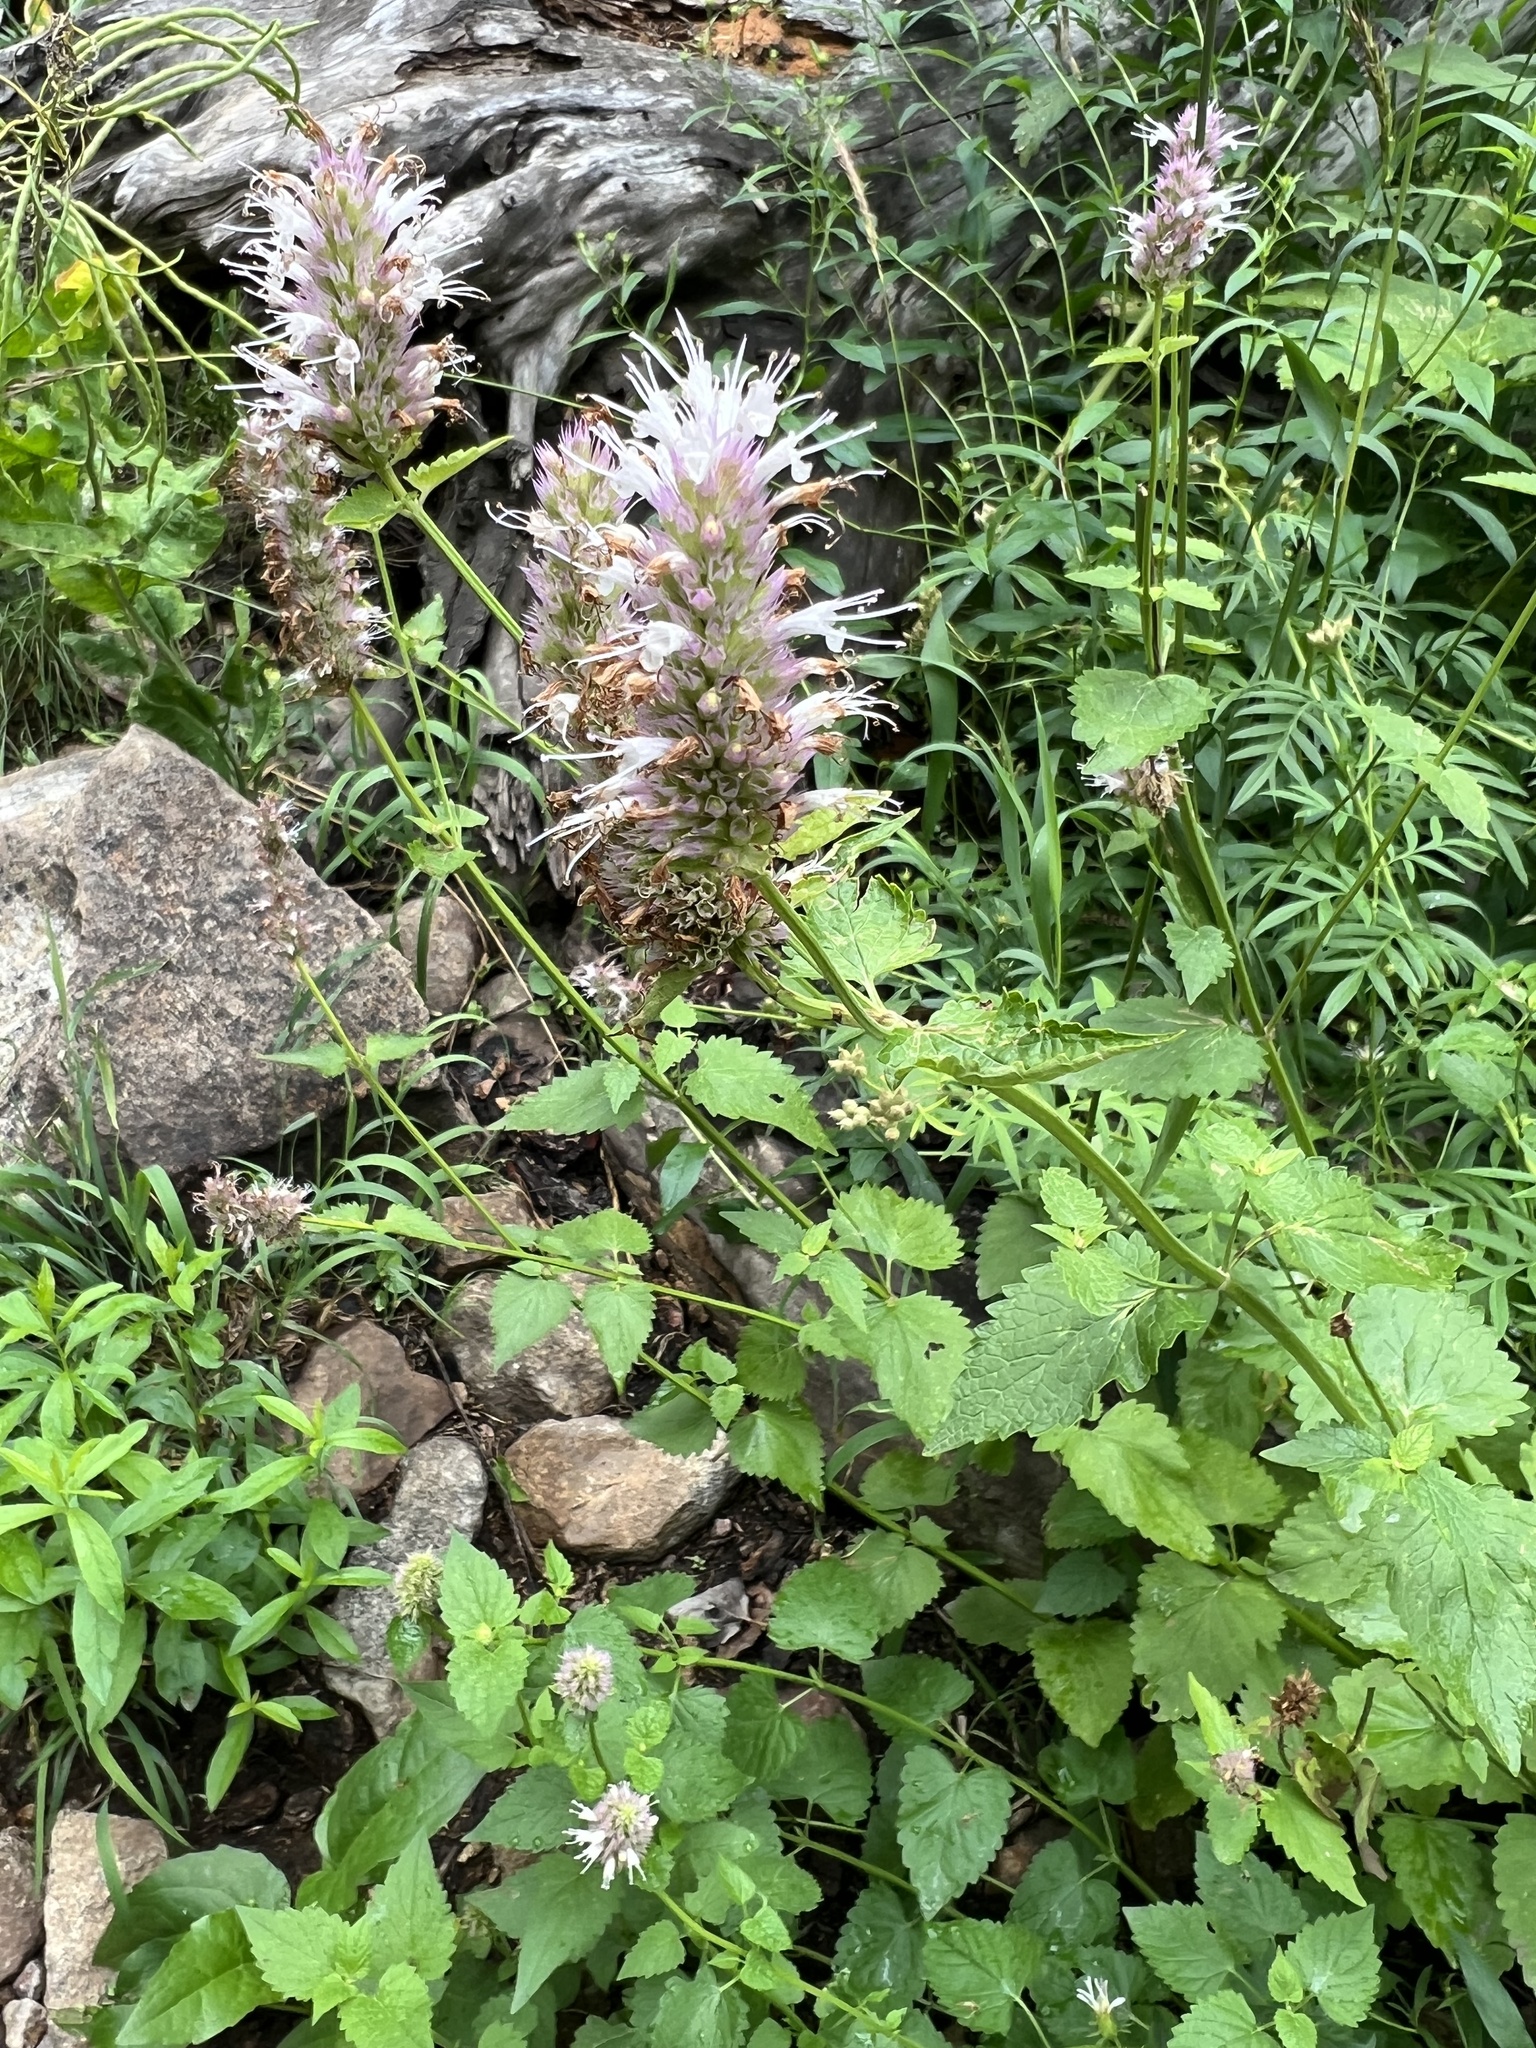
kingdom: Plantae
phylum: Tracheophyta
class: Magnoliopsida
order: Lamiales
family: Lamiaceae
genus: Agastache
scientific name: Agastache urticifolia
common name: Horsemint giant hyssop
